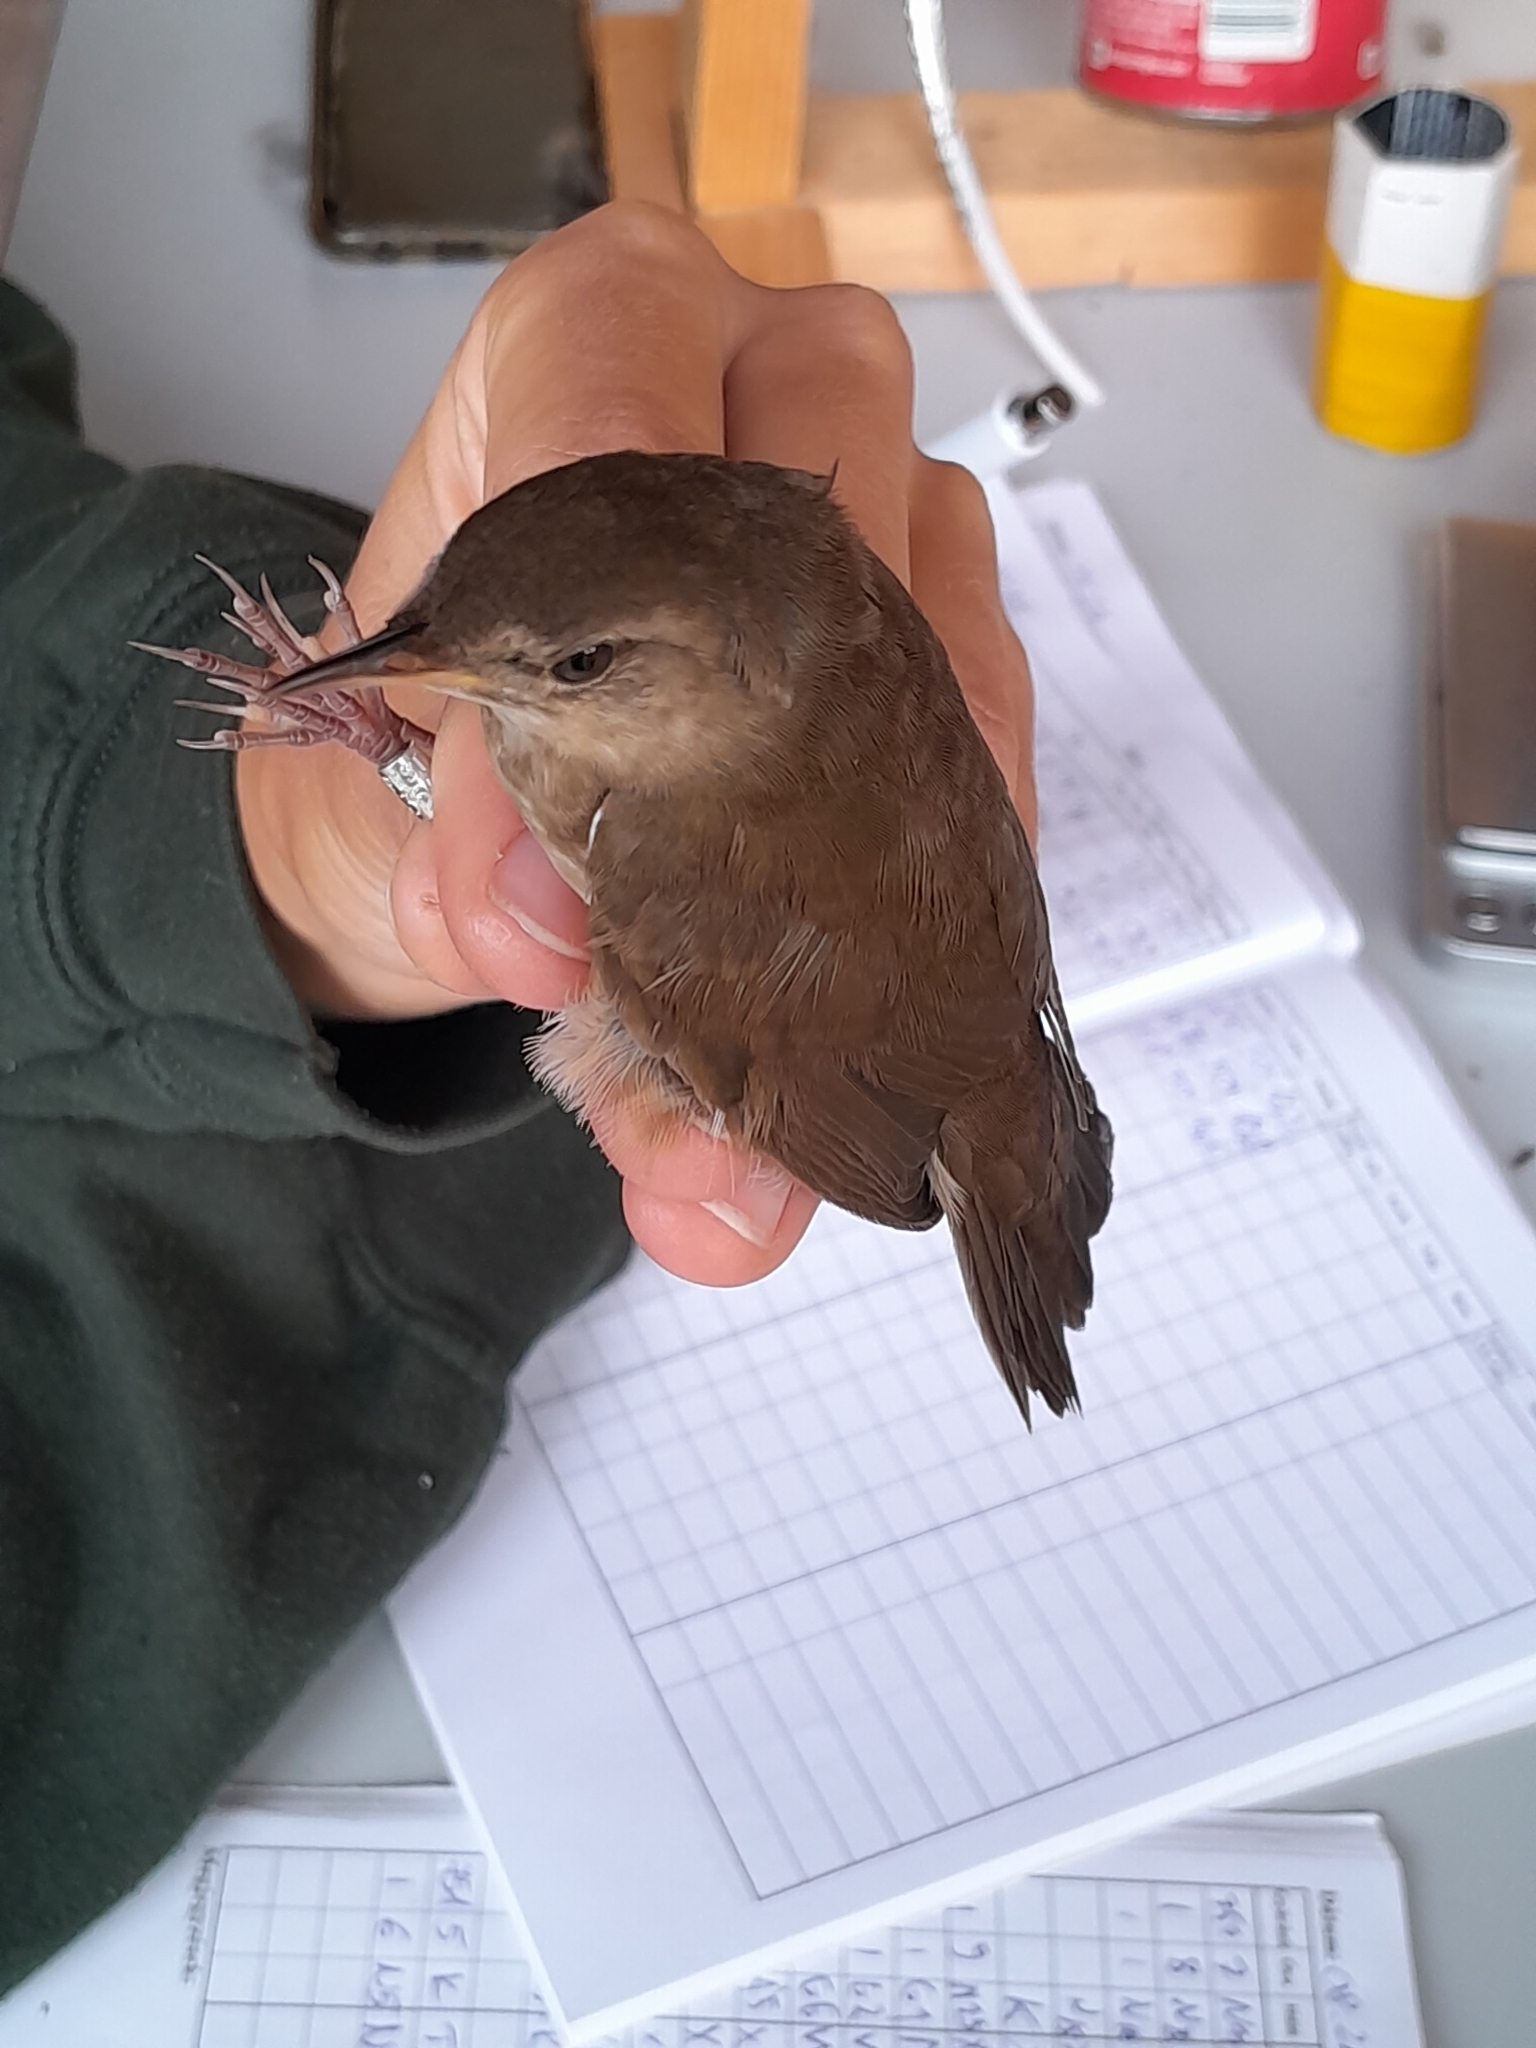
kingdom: Animalia
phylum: Chordata
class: Aves
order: Passeriformes
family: Locustellidae
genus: Locustella
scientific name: Locustella luscinioides
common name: Savi's warbler
